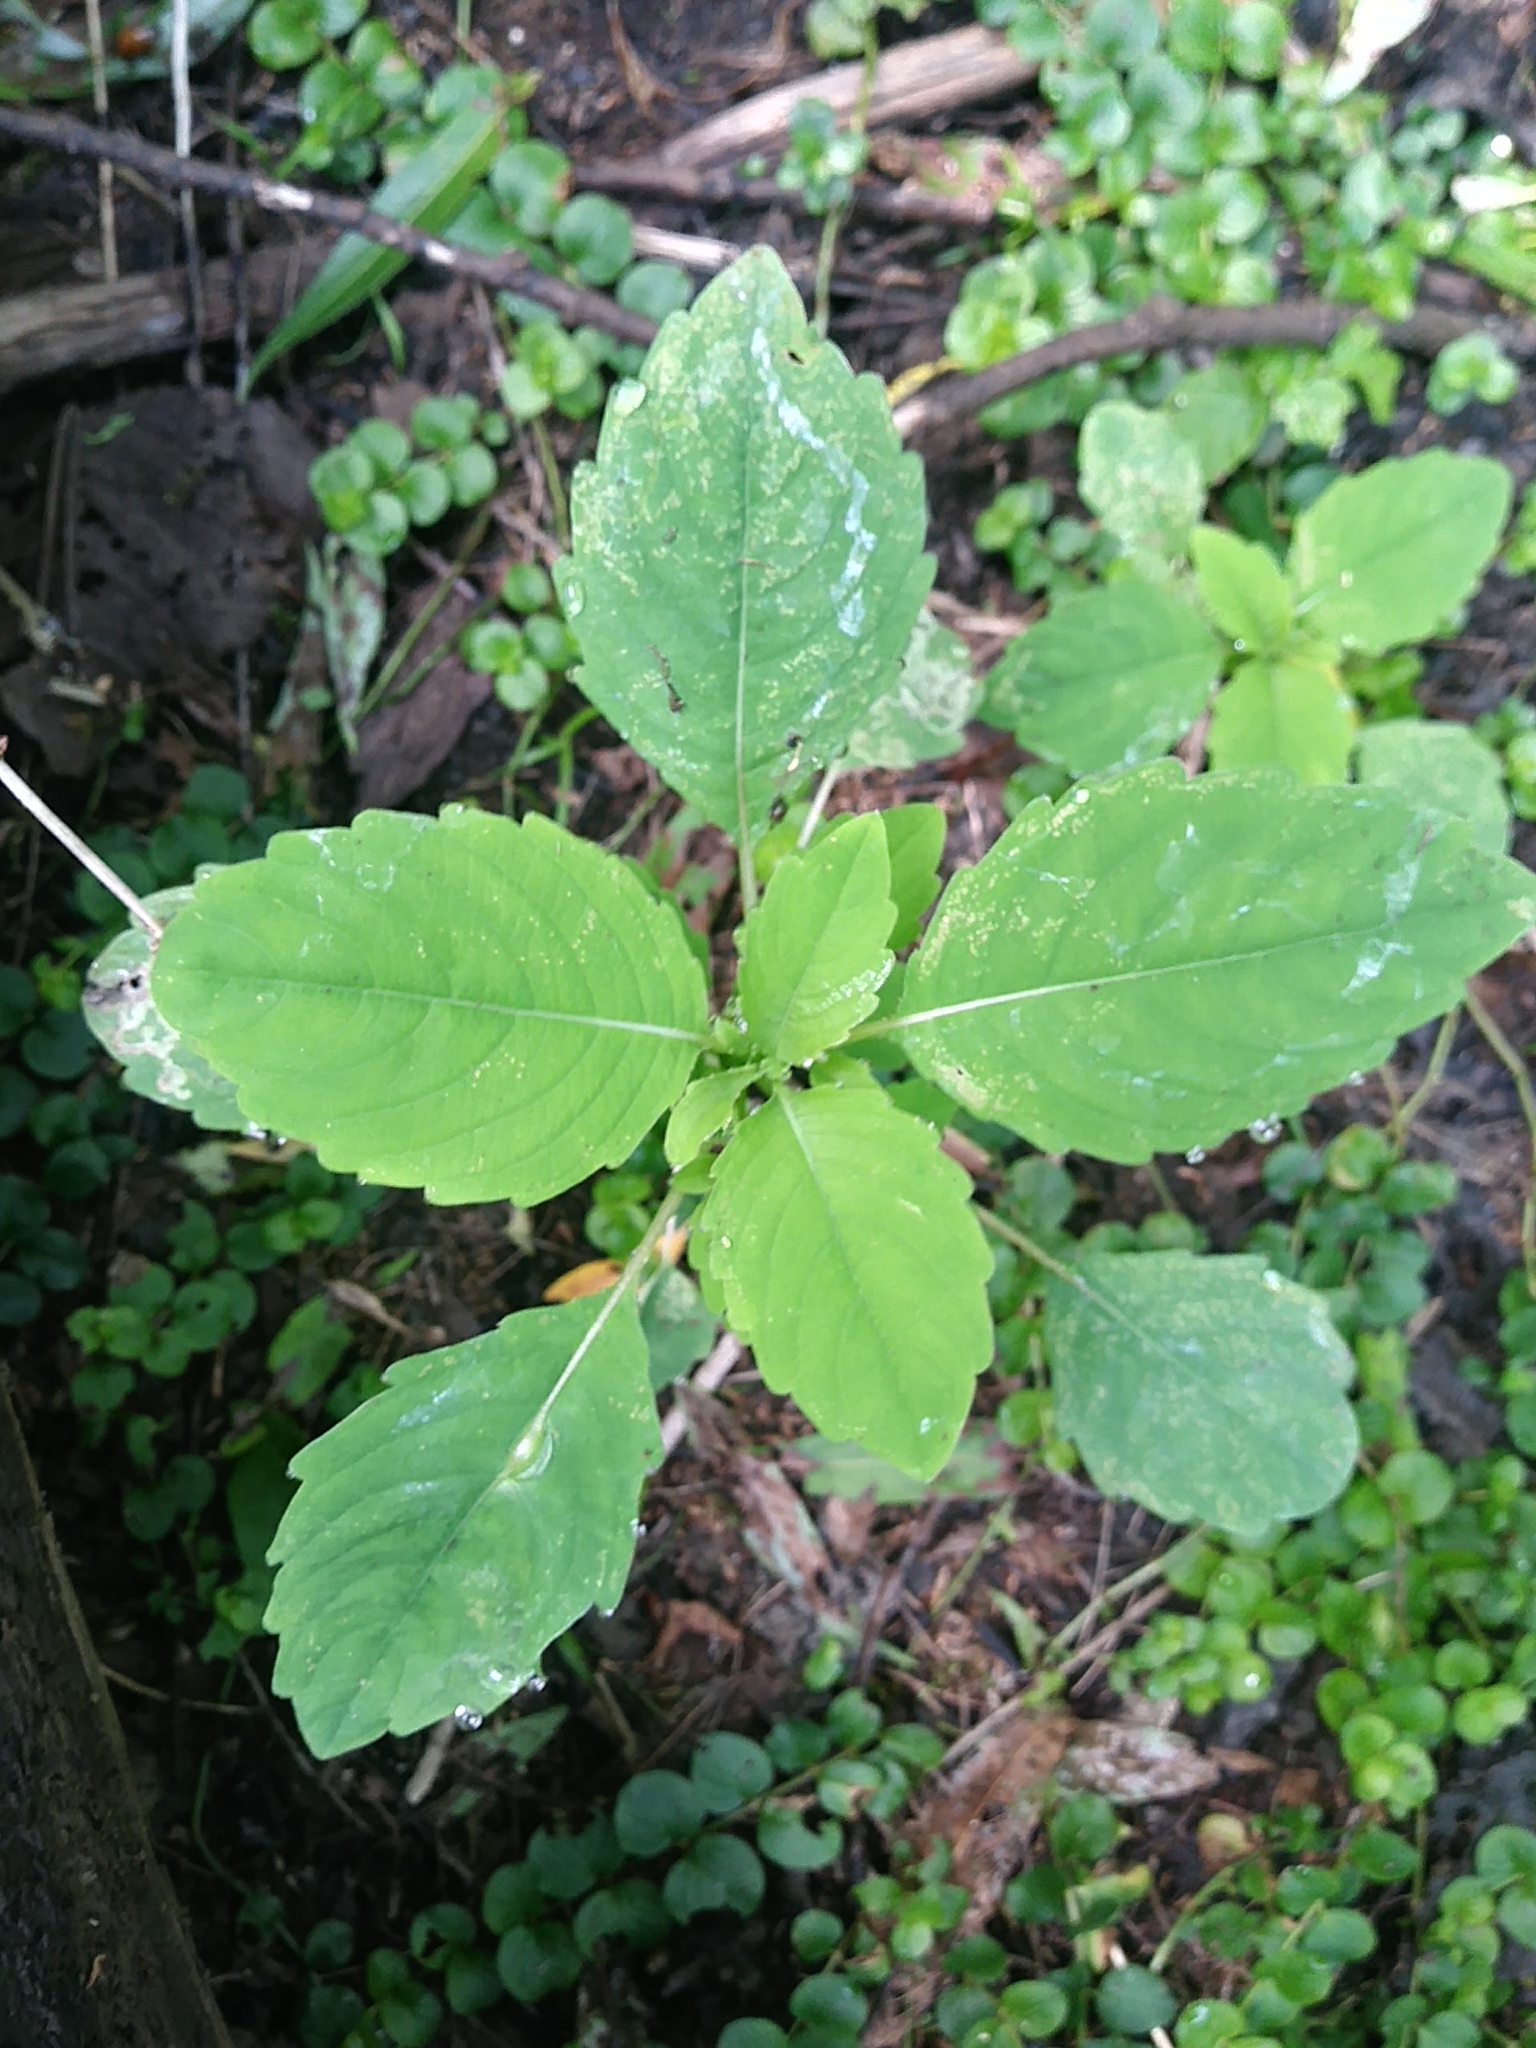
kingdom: Plantae
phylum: Tracheophyta
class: Magnoliopsida
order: Ericales
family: Balsaminaceae
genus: Impatiens
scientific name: Impatiens
